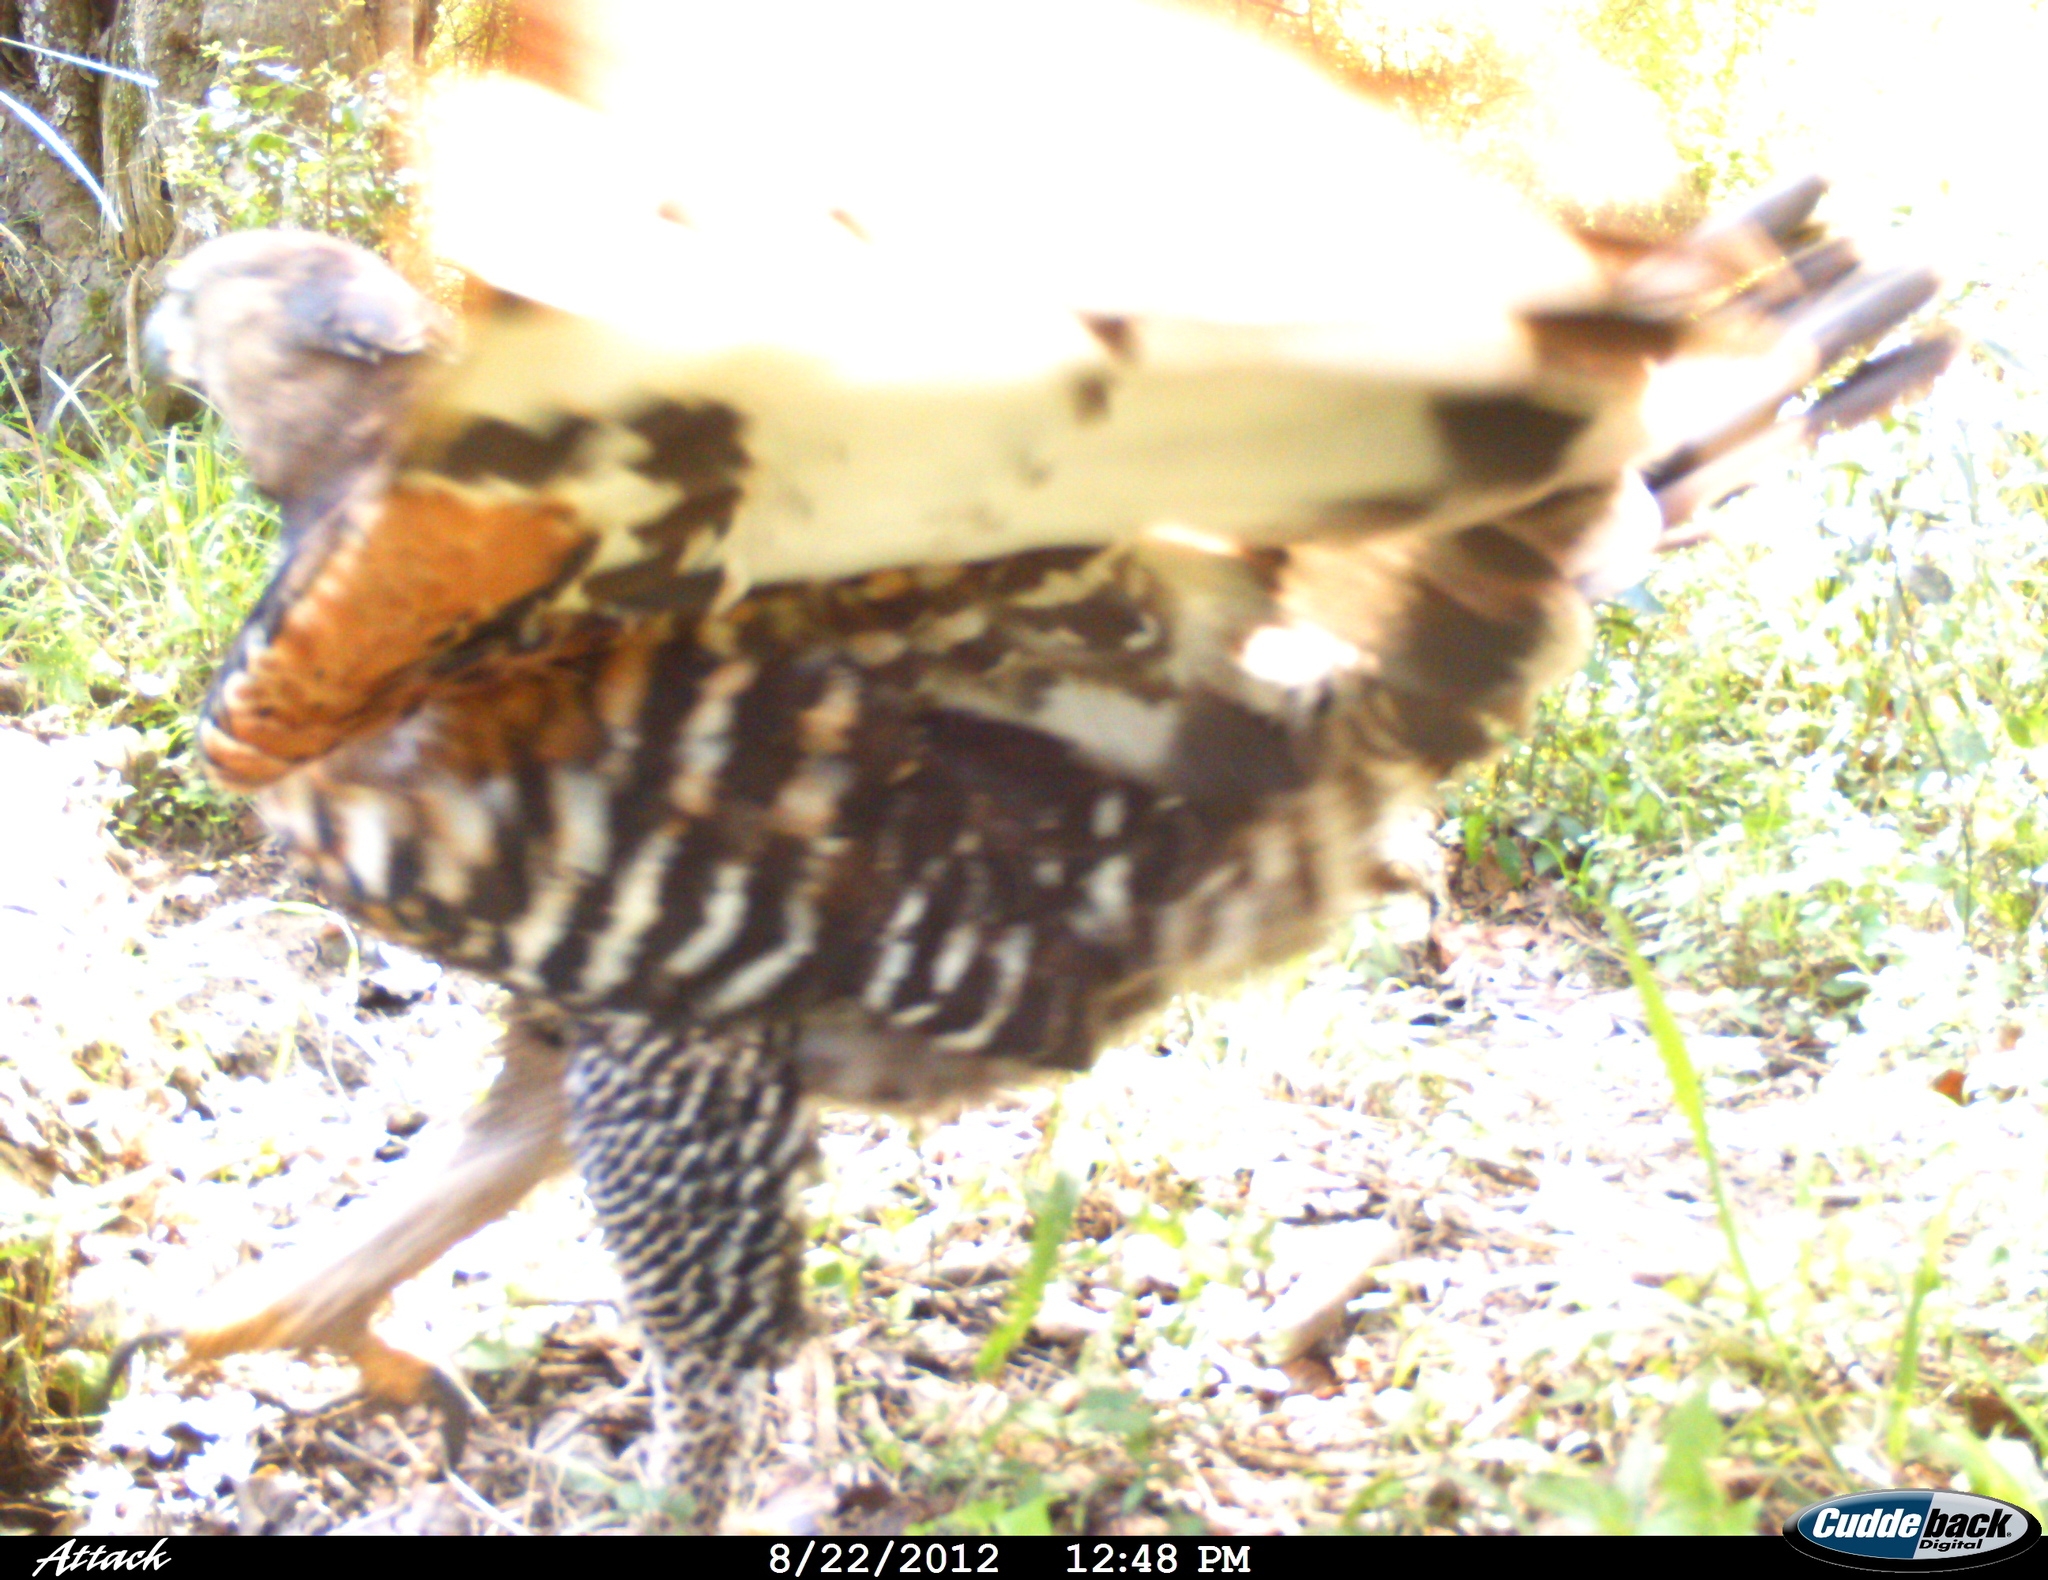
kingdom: Animalia
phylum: Chordata
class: Aves
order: Accipitriformes
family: Accipitridae
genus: Stephanoaetus
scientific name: Stephanoaetus coronatus
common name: Crowned eagle
